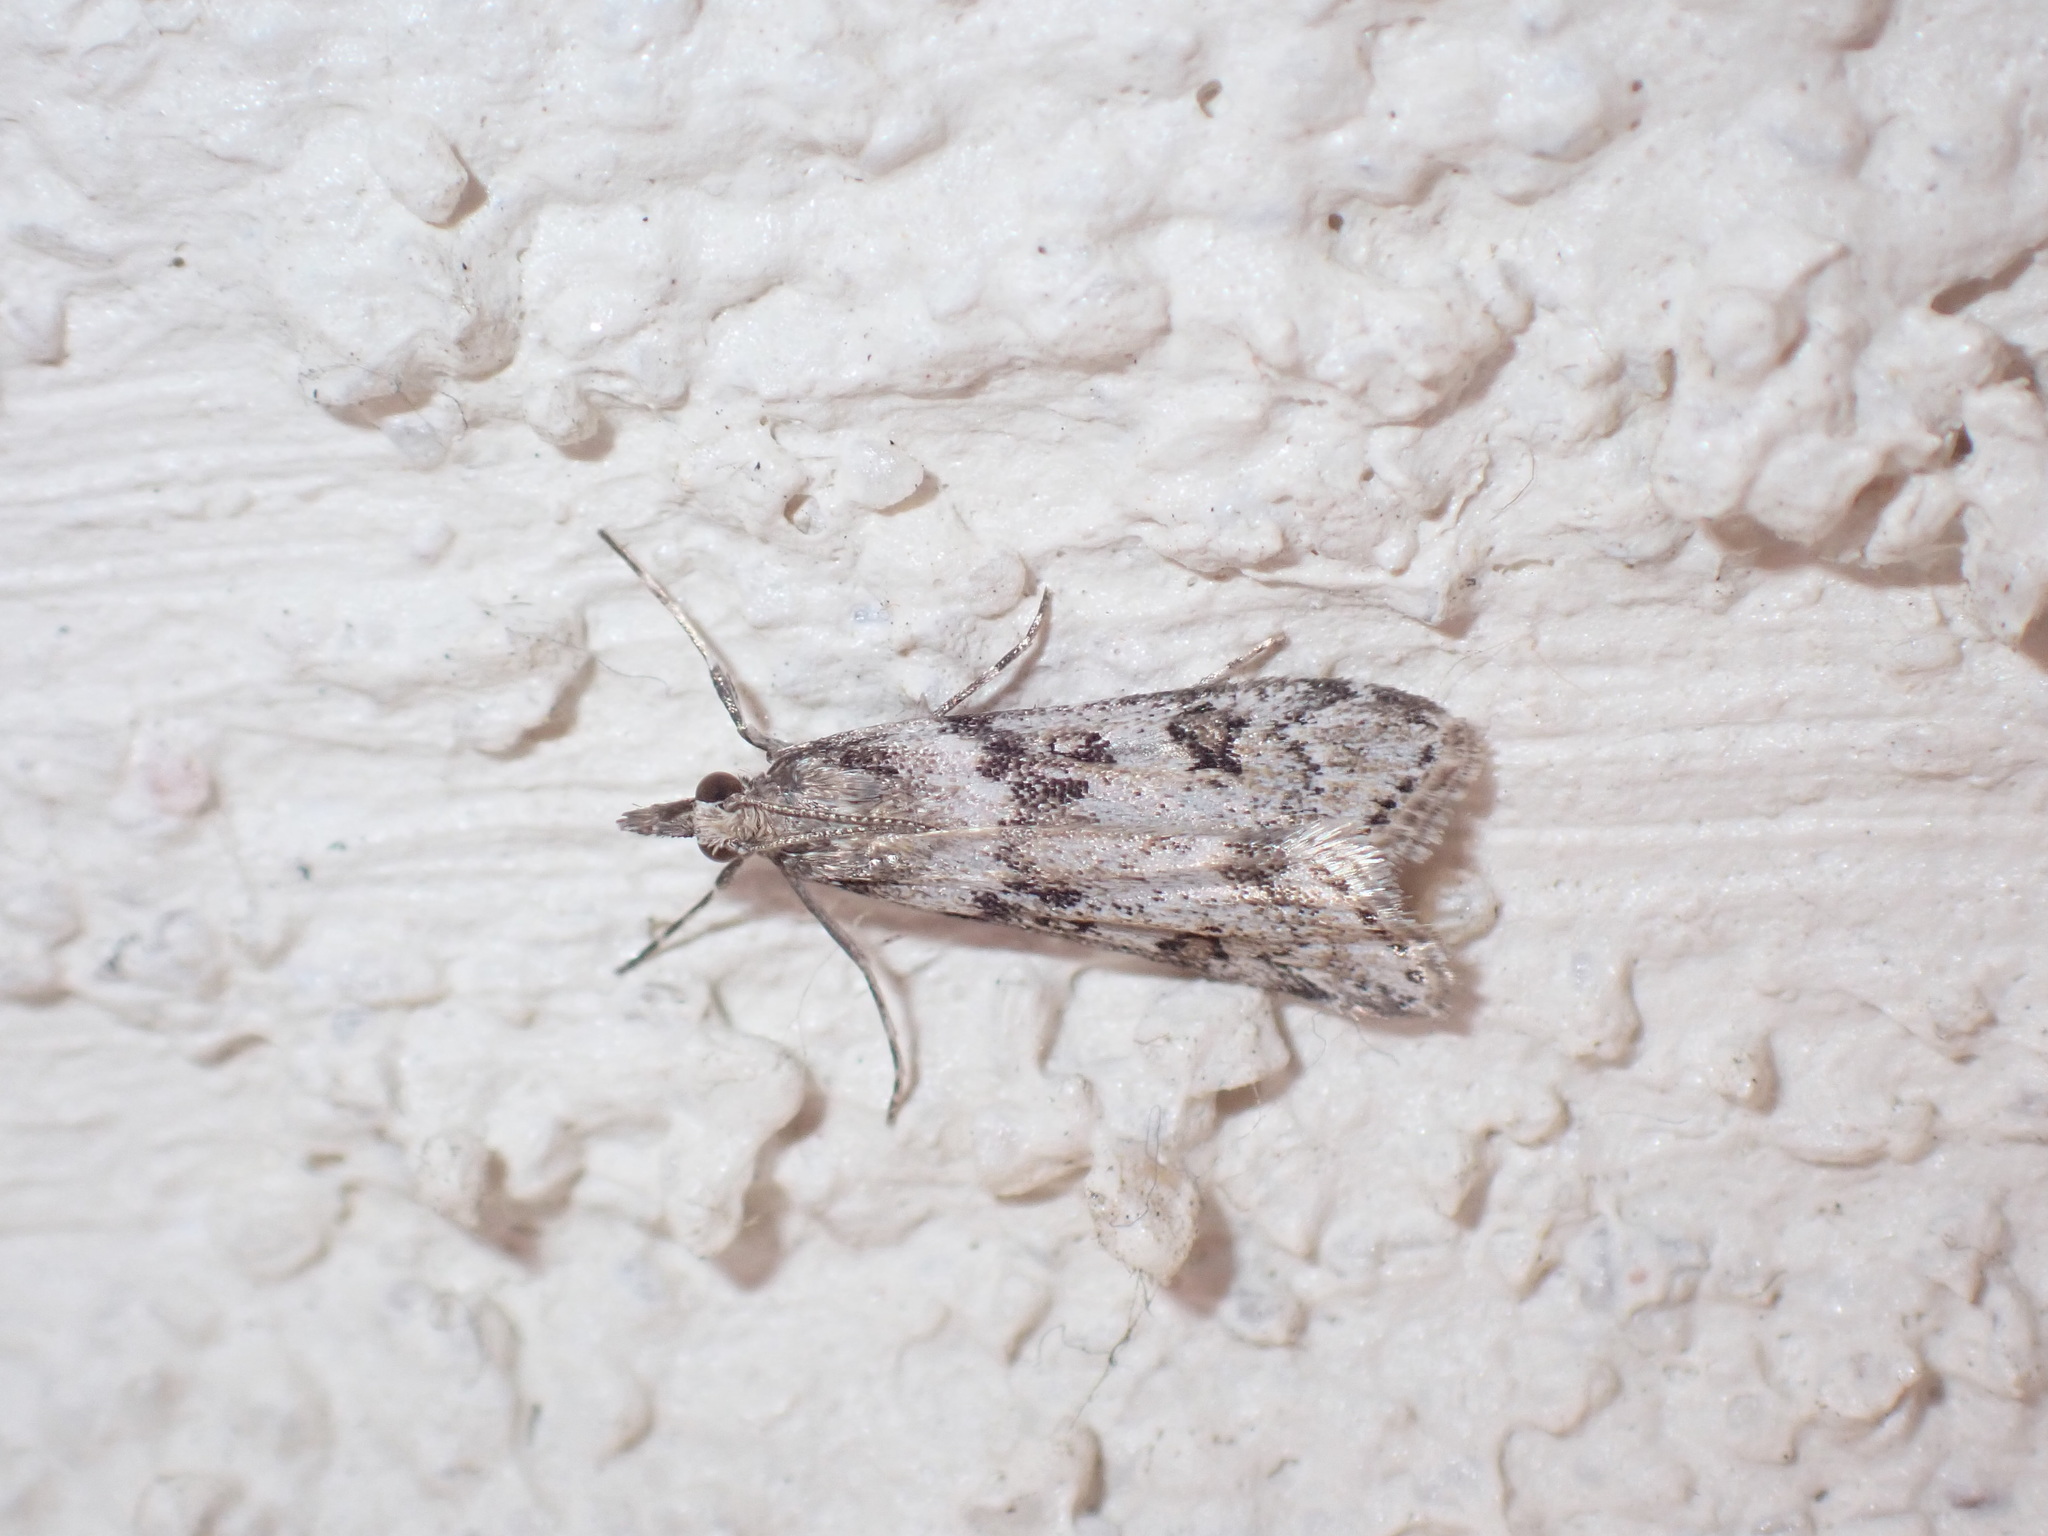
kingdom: Animalia
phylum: Arthropoda
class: Insecta
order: Lepidoptera
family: Crambidae
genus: Eudonia
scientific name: Eudonia angustea
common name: Narrow-winged grey
